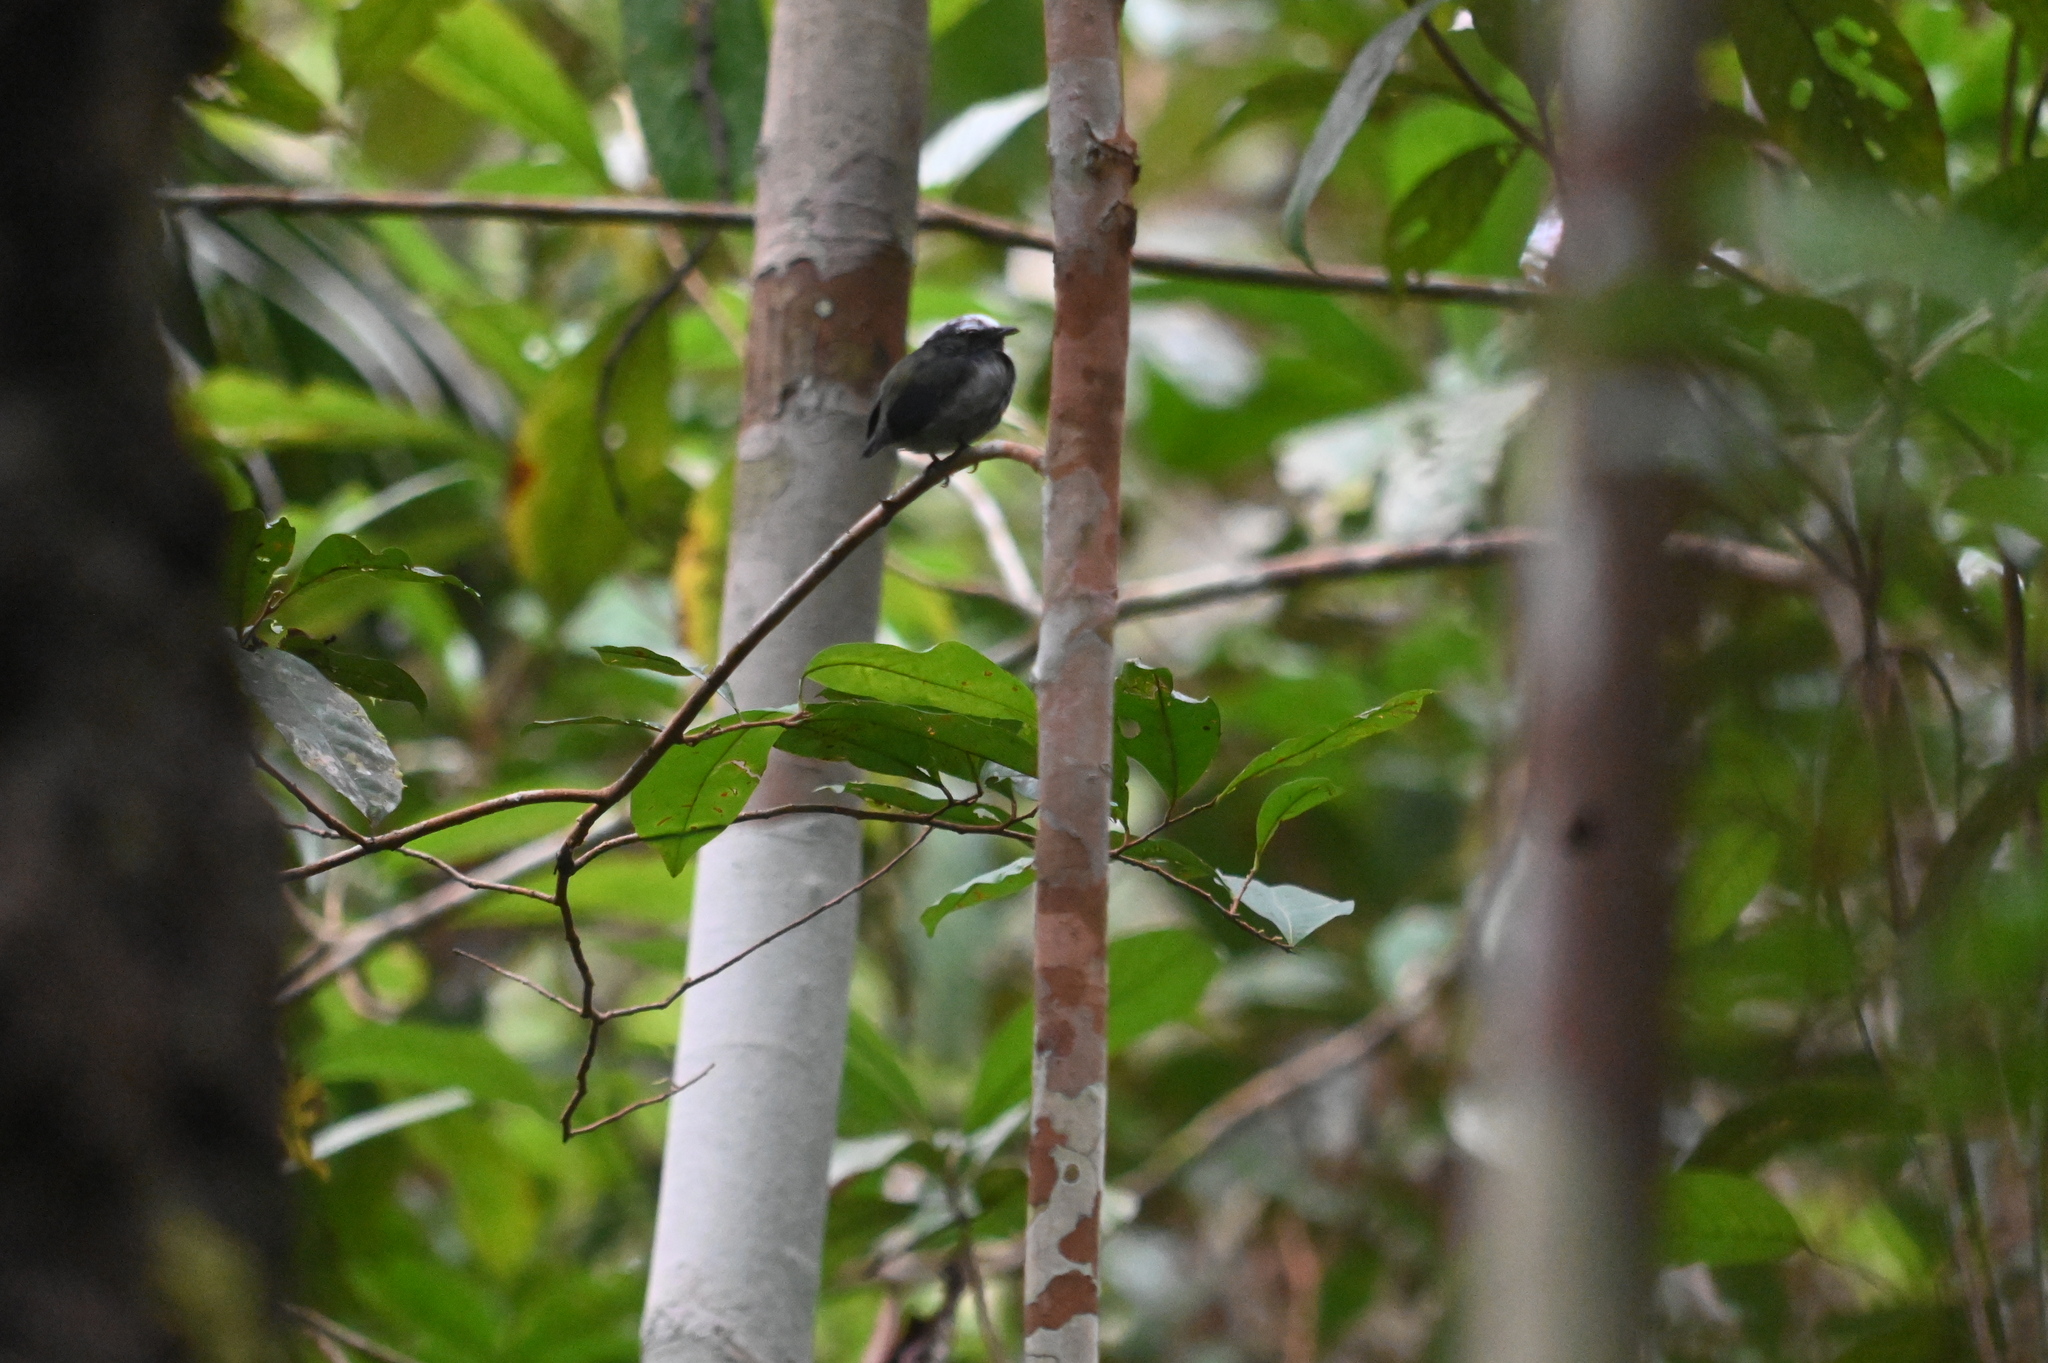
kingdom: Animalia
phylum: Chordata
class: Aves
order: Passeriformes
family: Pipridae
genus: Pipra
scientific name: Pipra pipra
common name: White-crowned manakin
